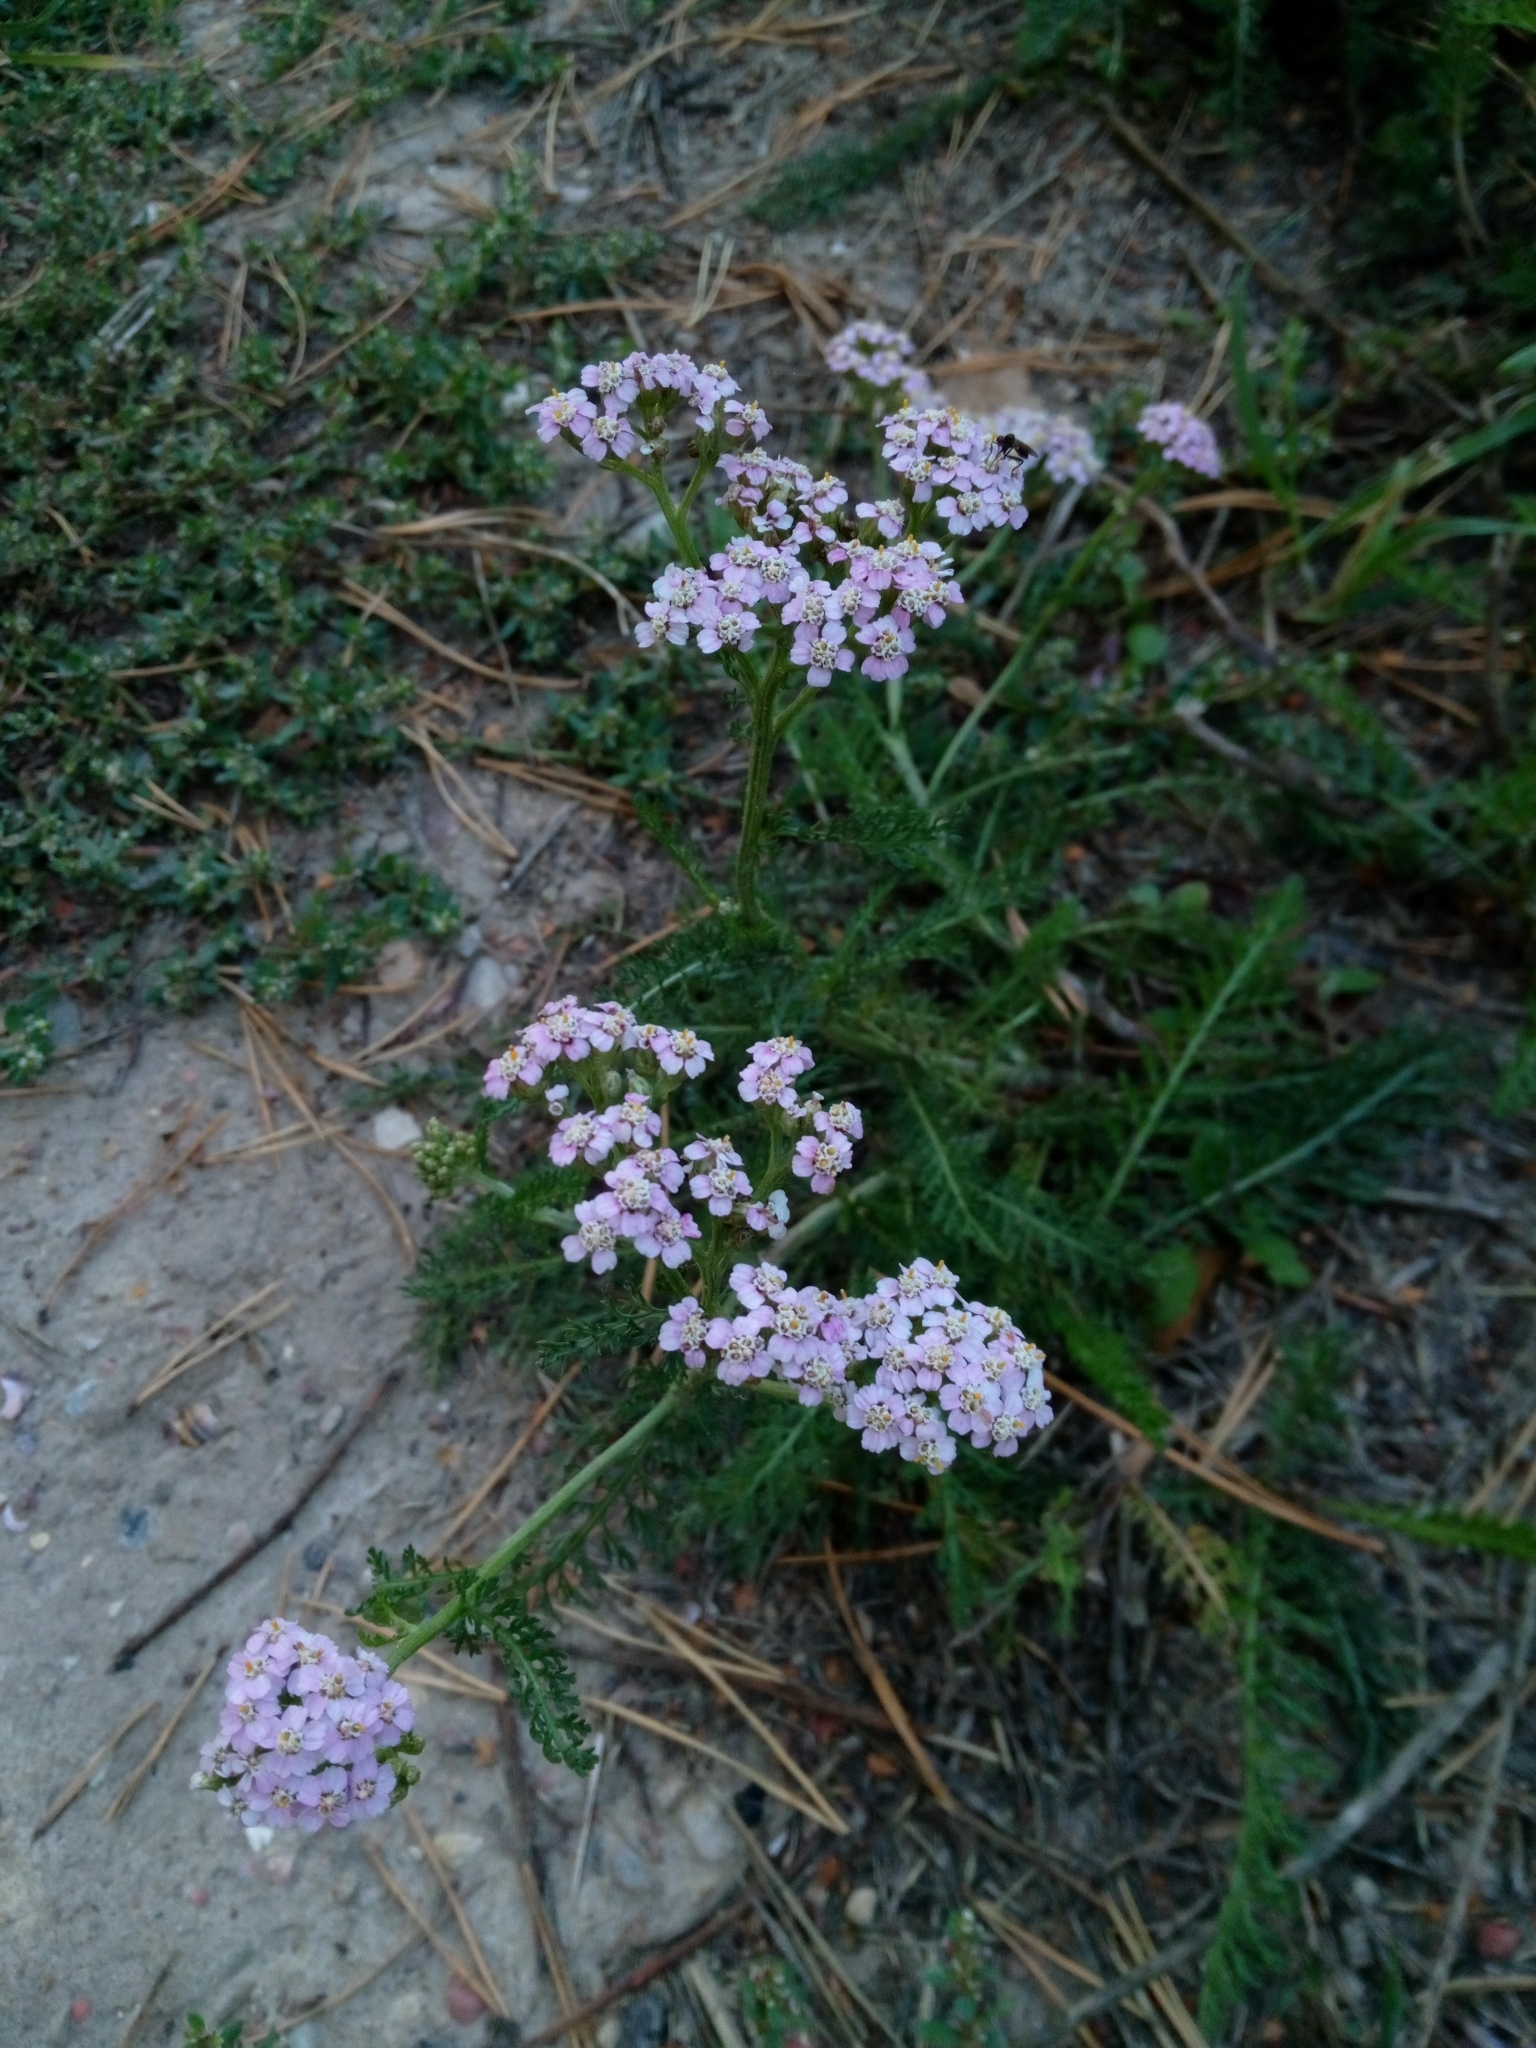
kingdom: Plantae
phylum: Tracheophyta
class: Magnoliopsida
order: Asterales
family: Asteraceae
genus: Achillea
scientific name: Achillea millefolium
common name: Yarrow
